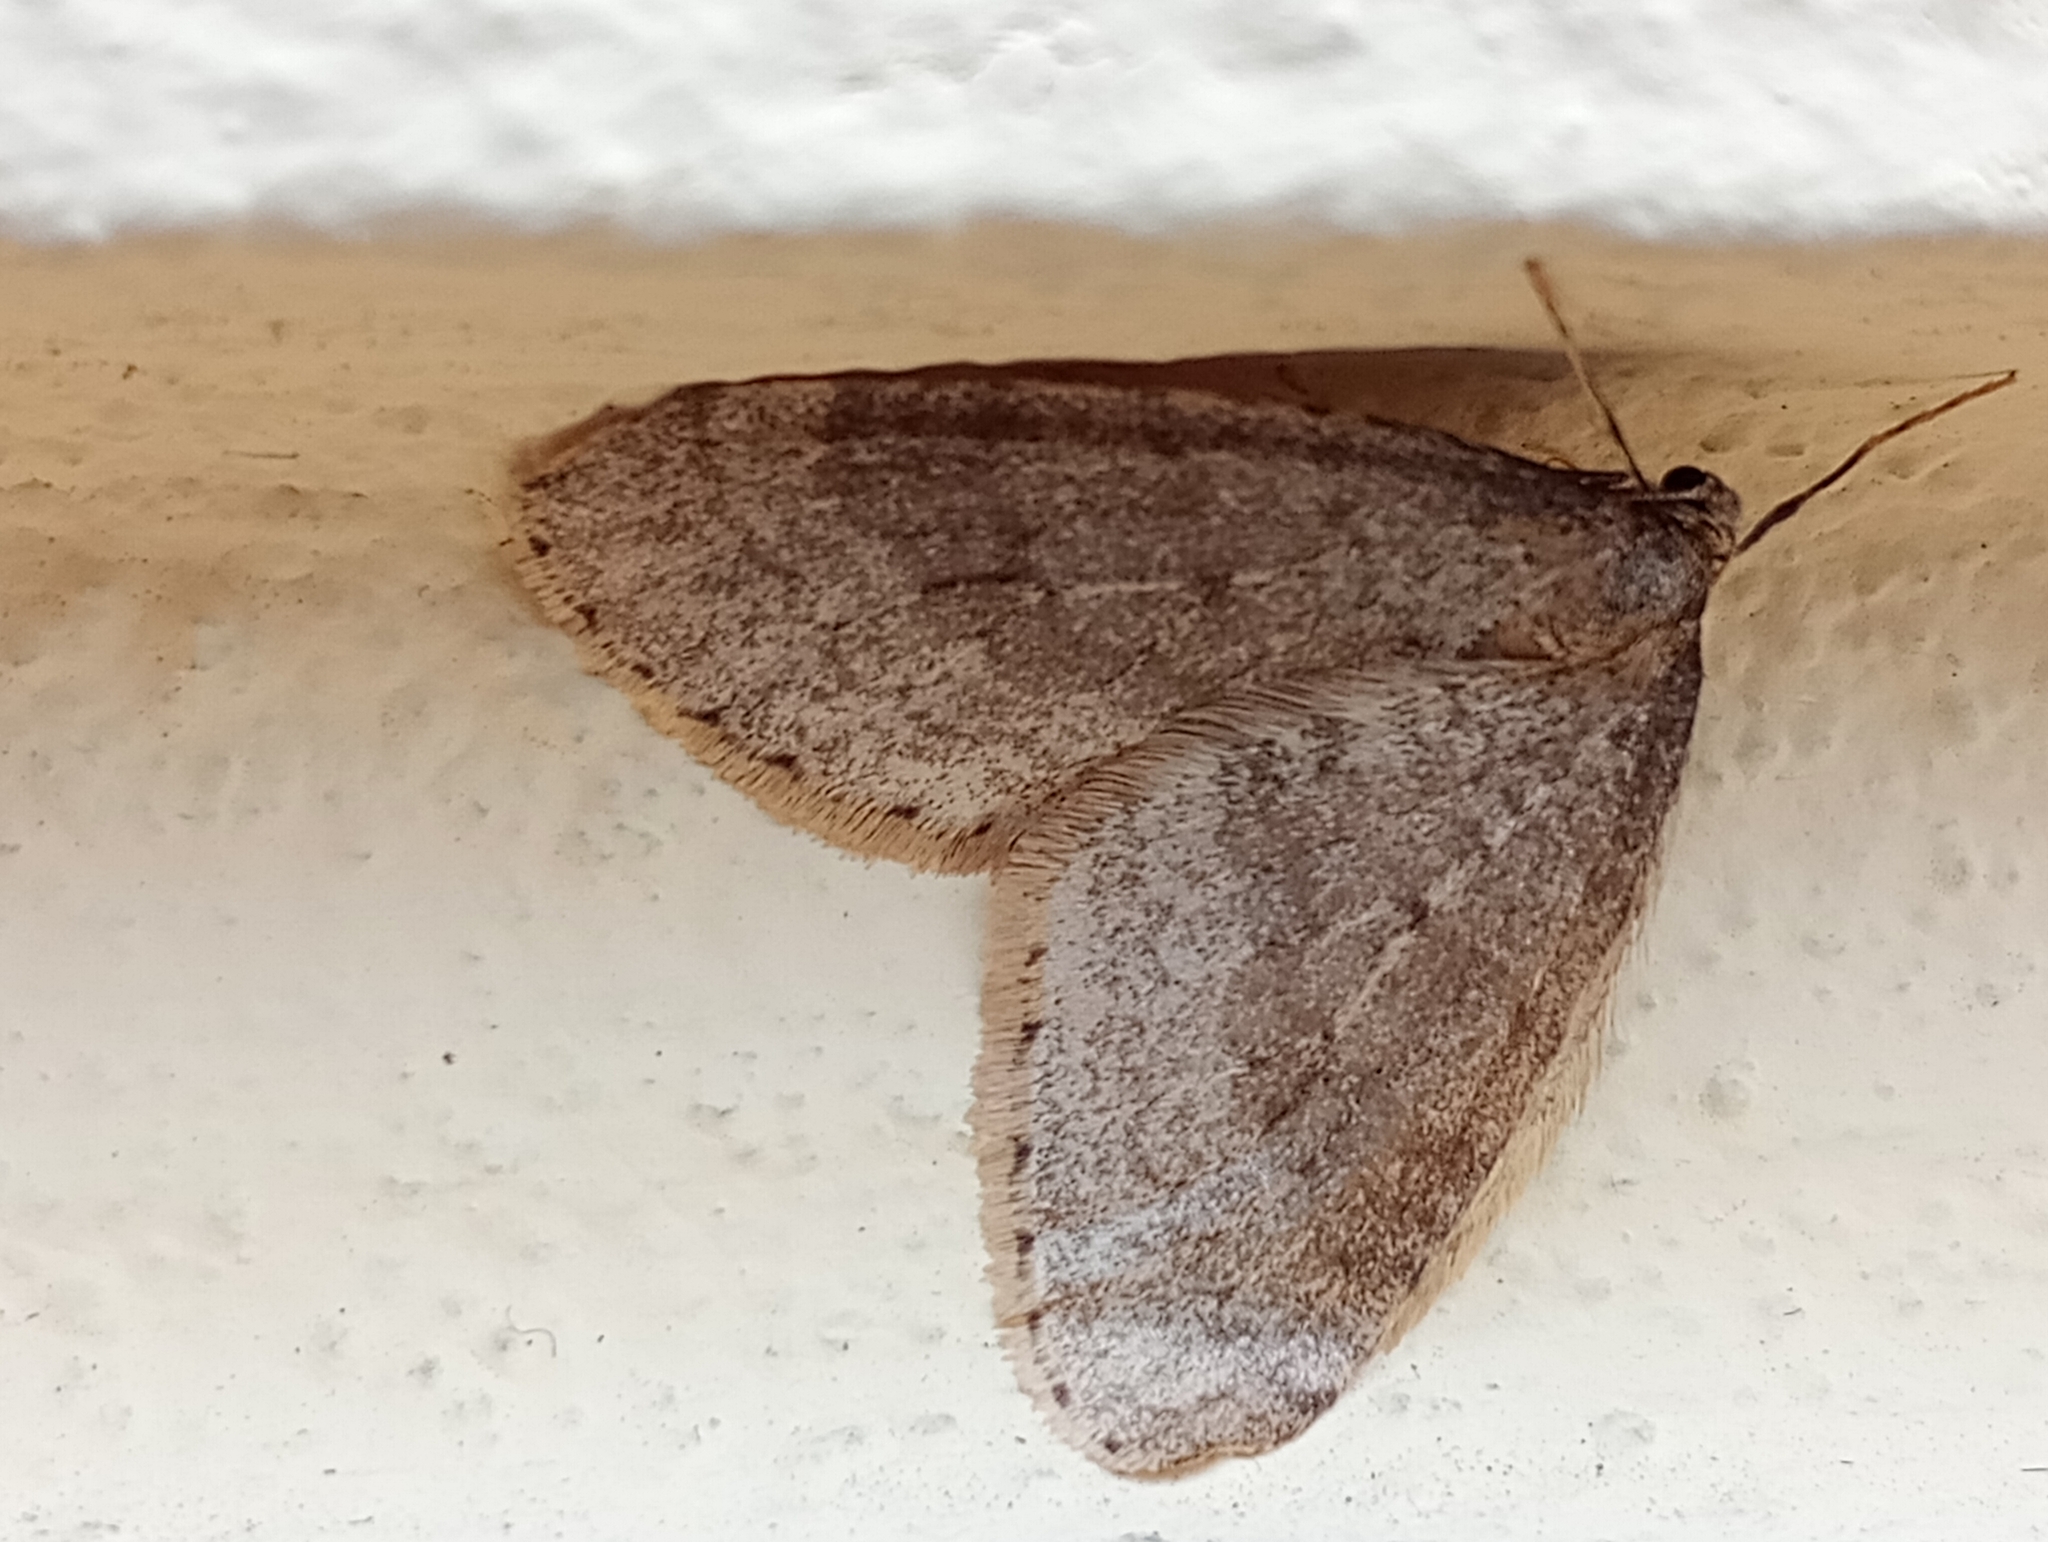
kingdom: Animalia
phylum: Arthropoda
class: Insecta
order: Lepidoptera
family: Geometridae
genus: Operophtera
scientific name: Operophtera brumata
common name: Winter moth
